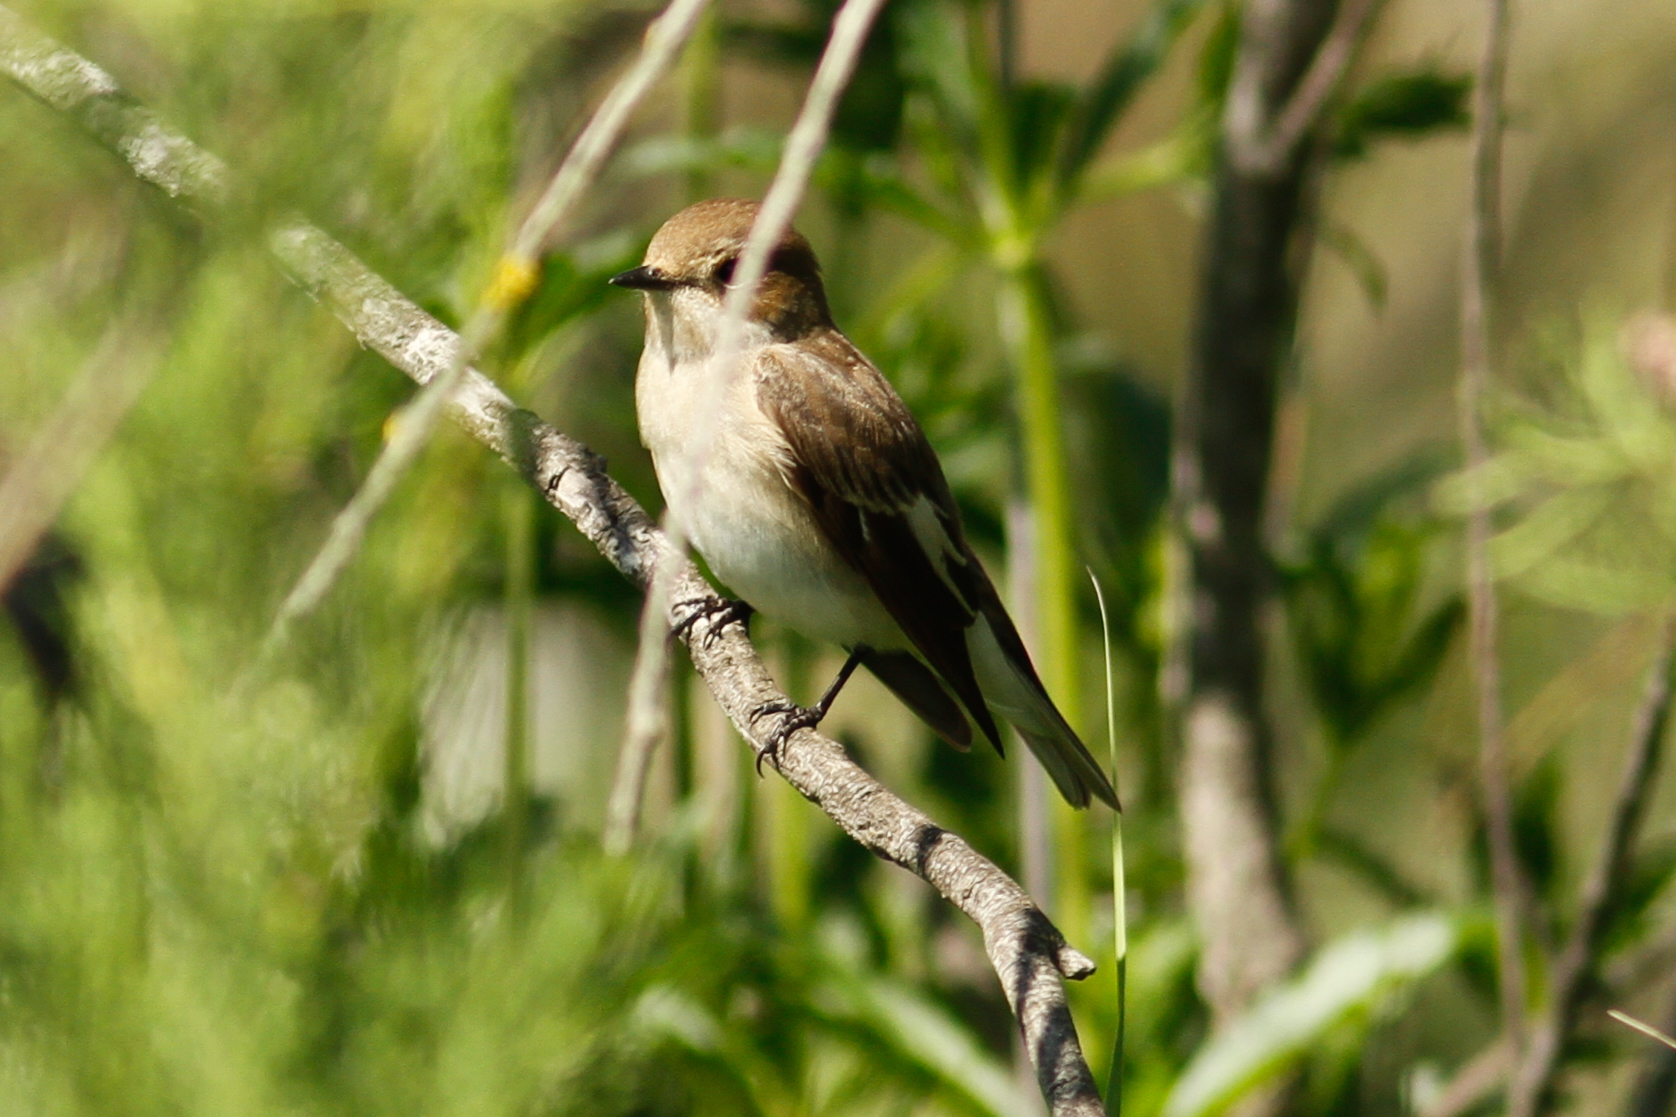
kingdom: Animalia
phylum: Chordata
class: Aves
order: Passeriformes
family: Muscicapidae
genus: Ficedula
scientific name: Ficedula hypoleuca
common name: European pied flycatcher
